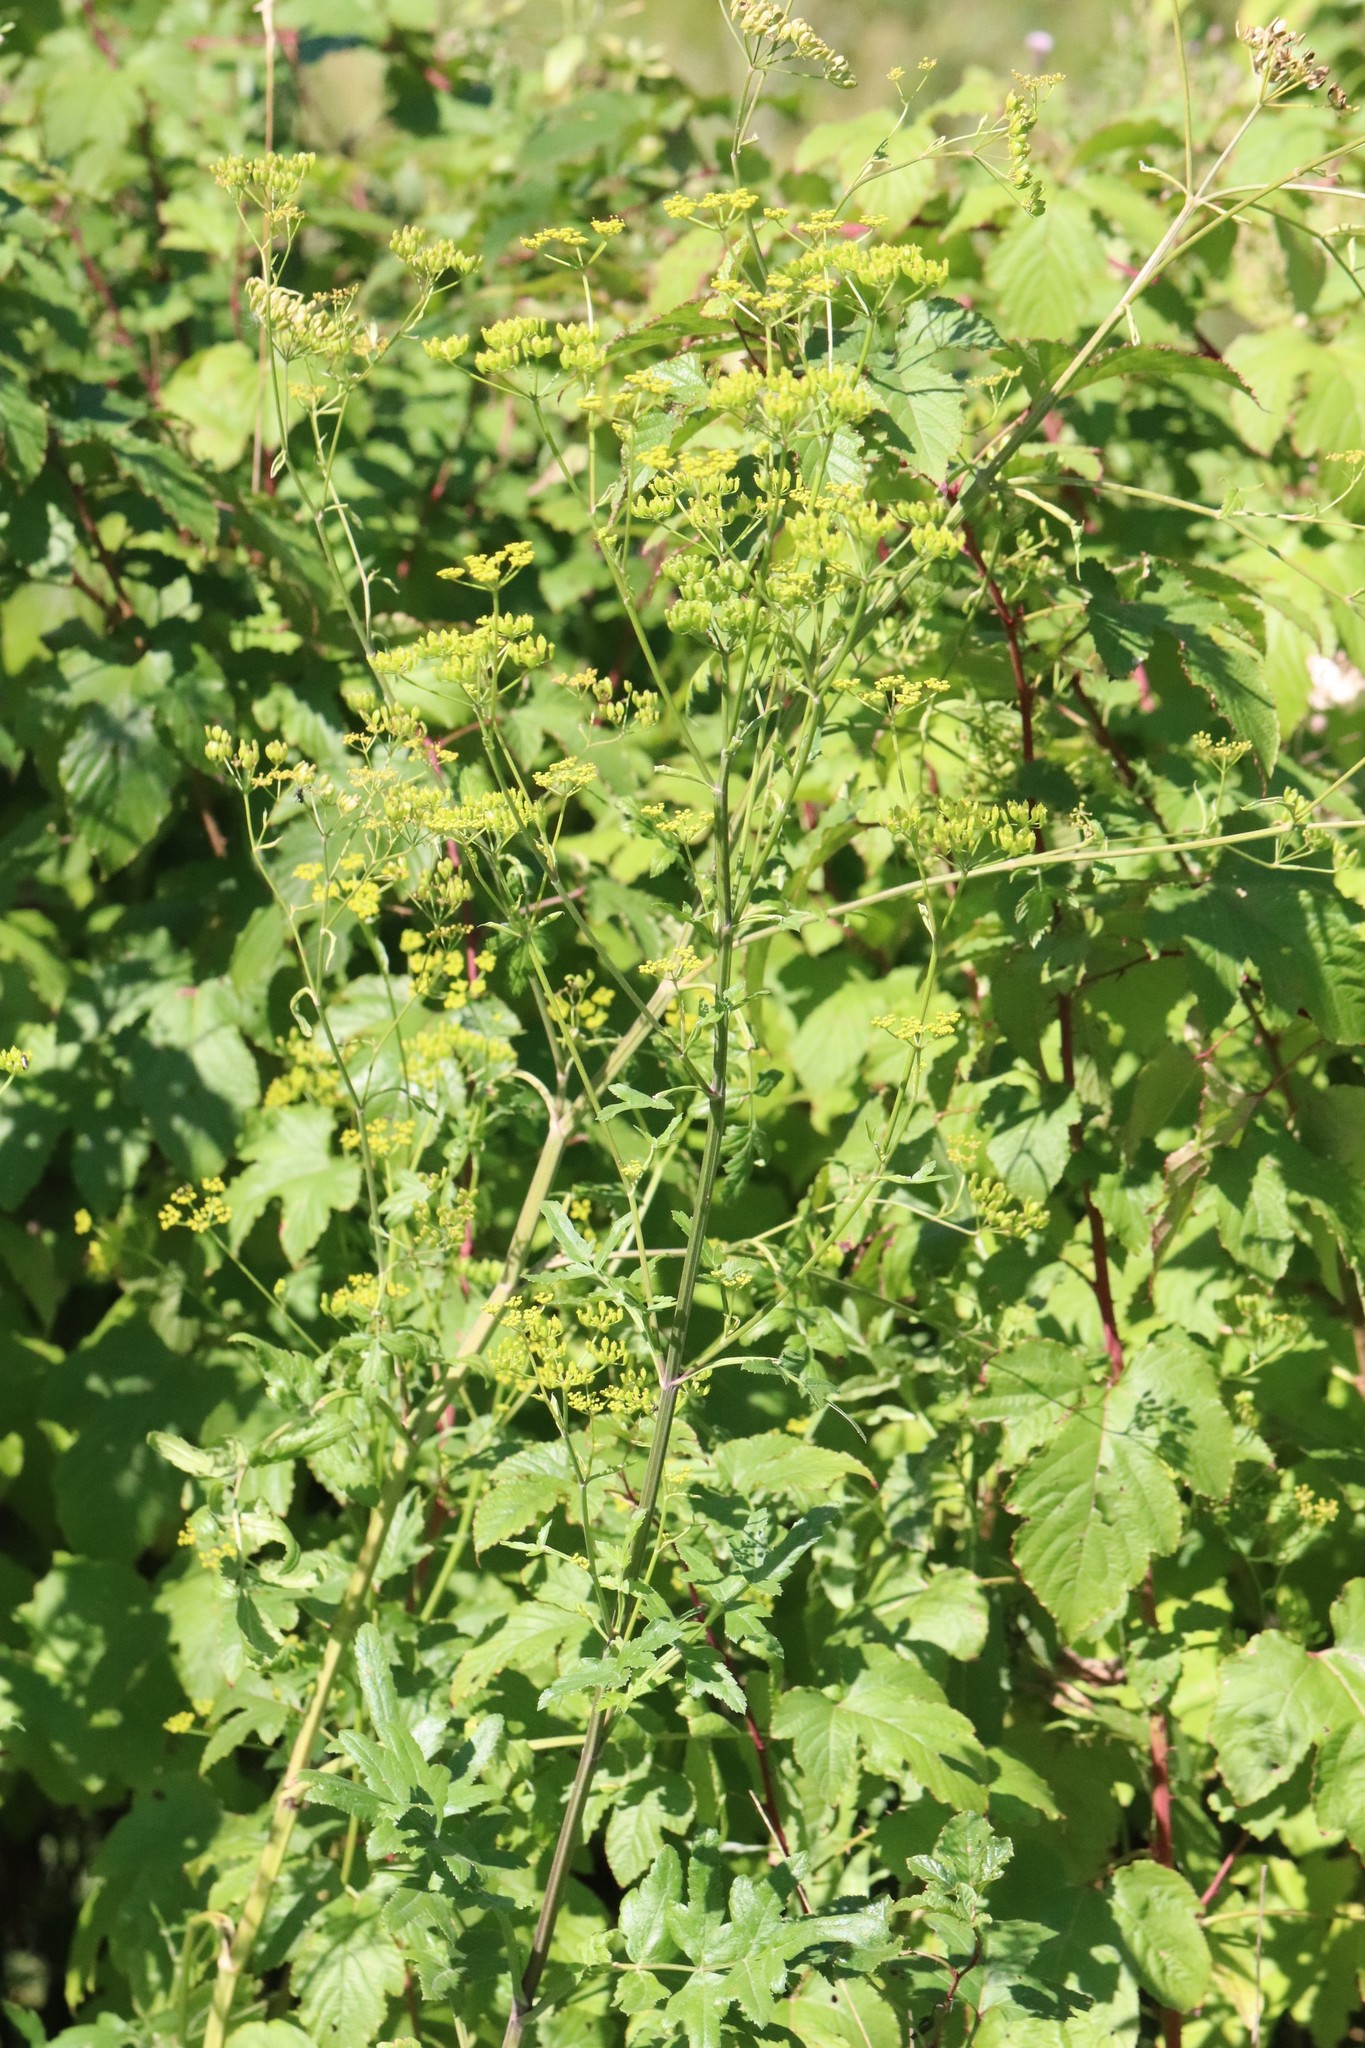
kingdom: Plantae
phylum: Tracheophyta
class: Magnoliopsida
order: Apiales
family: Apiaceae
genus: Pastinaca
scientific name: Pastinaca sativa
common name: Wild parsnip
